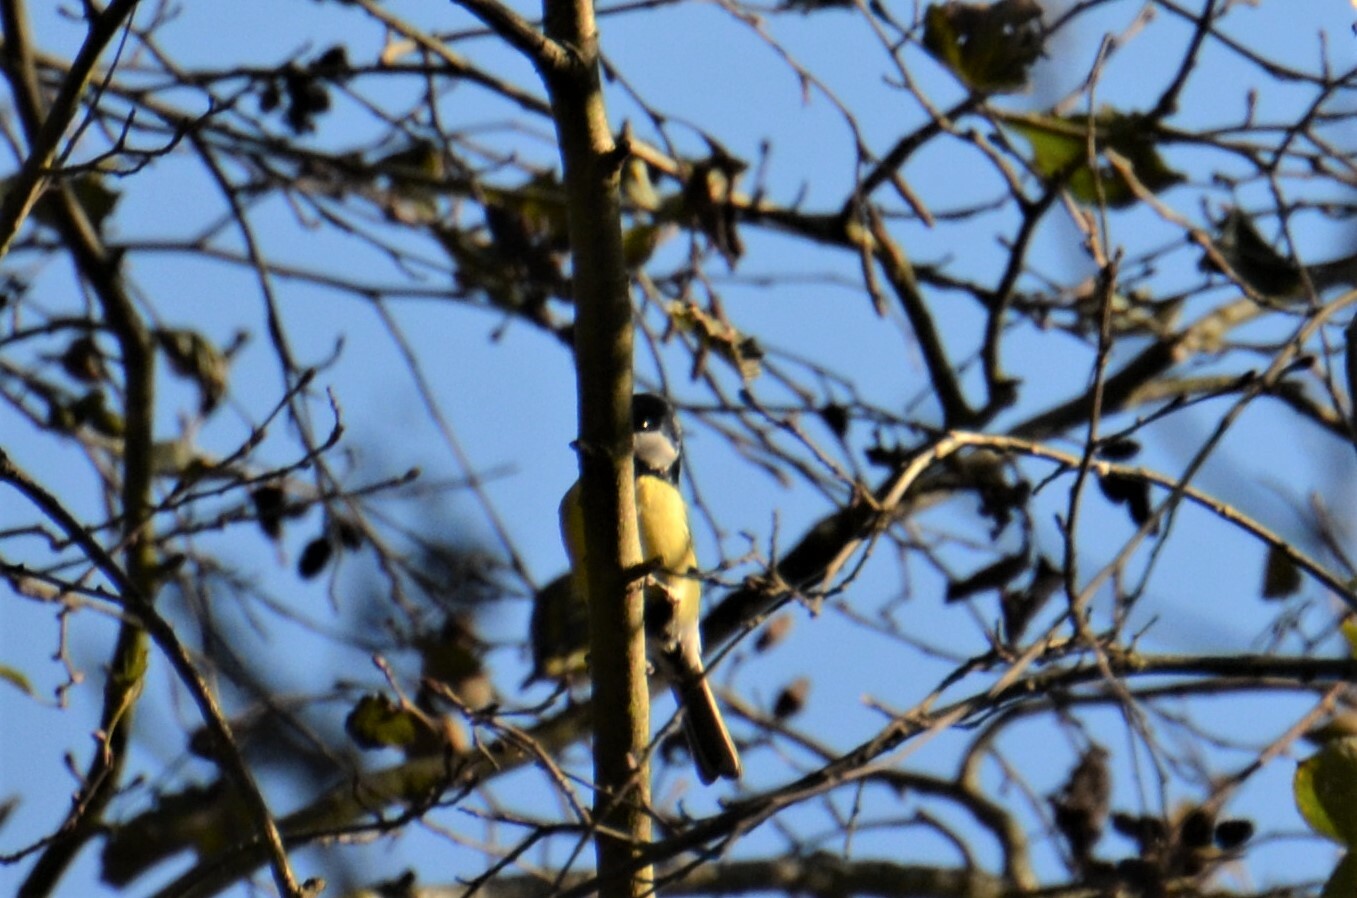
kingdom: Animalia
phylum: Chordata
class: Aves
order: Passeriformes
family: Paridae
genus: Parus
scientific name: Parus major
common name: Great tit
